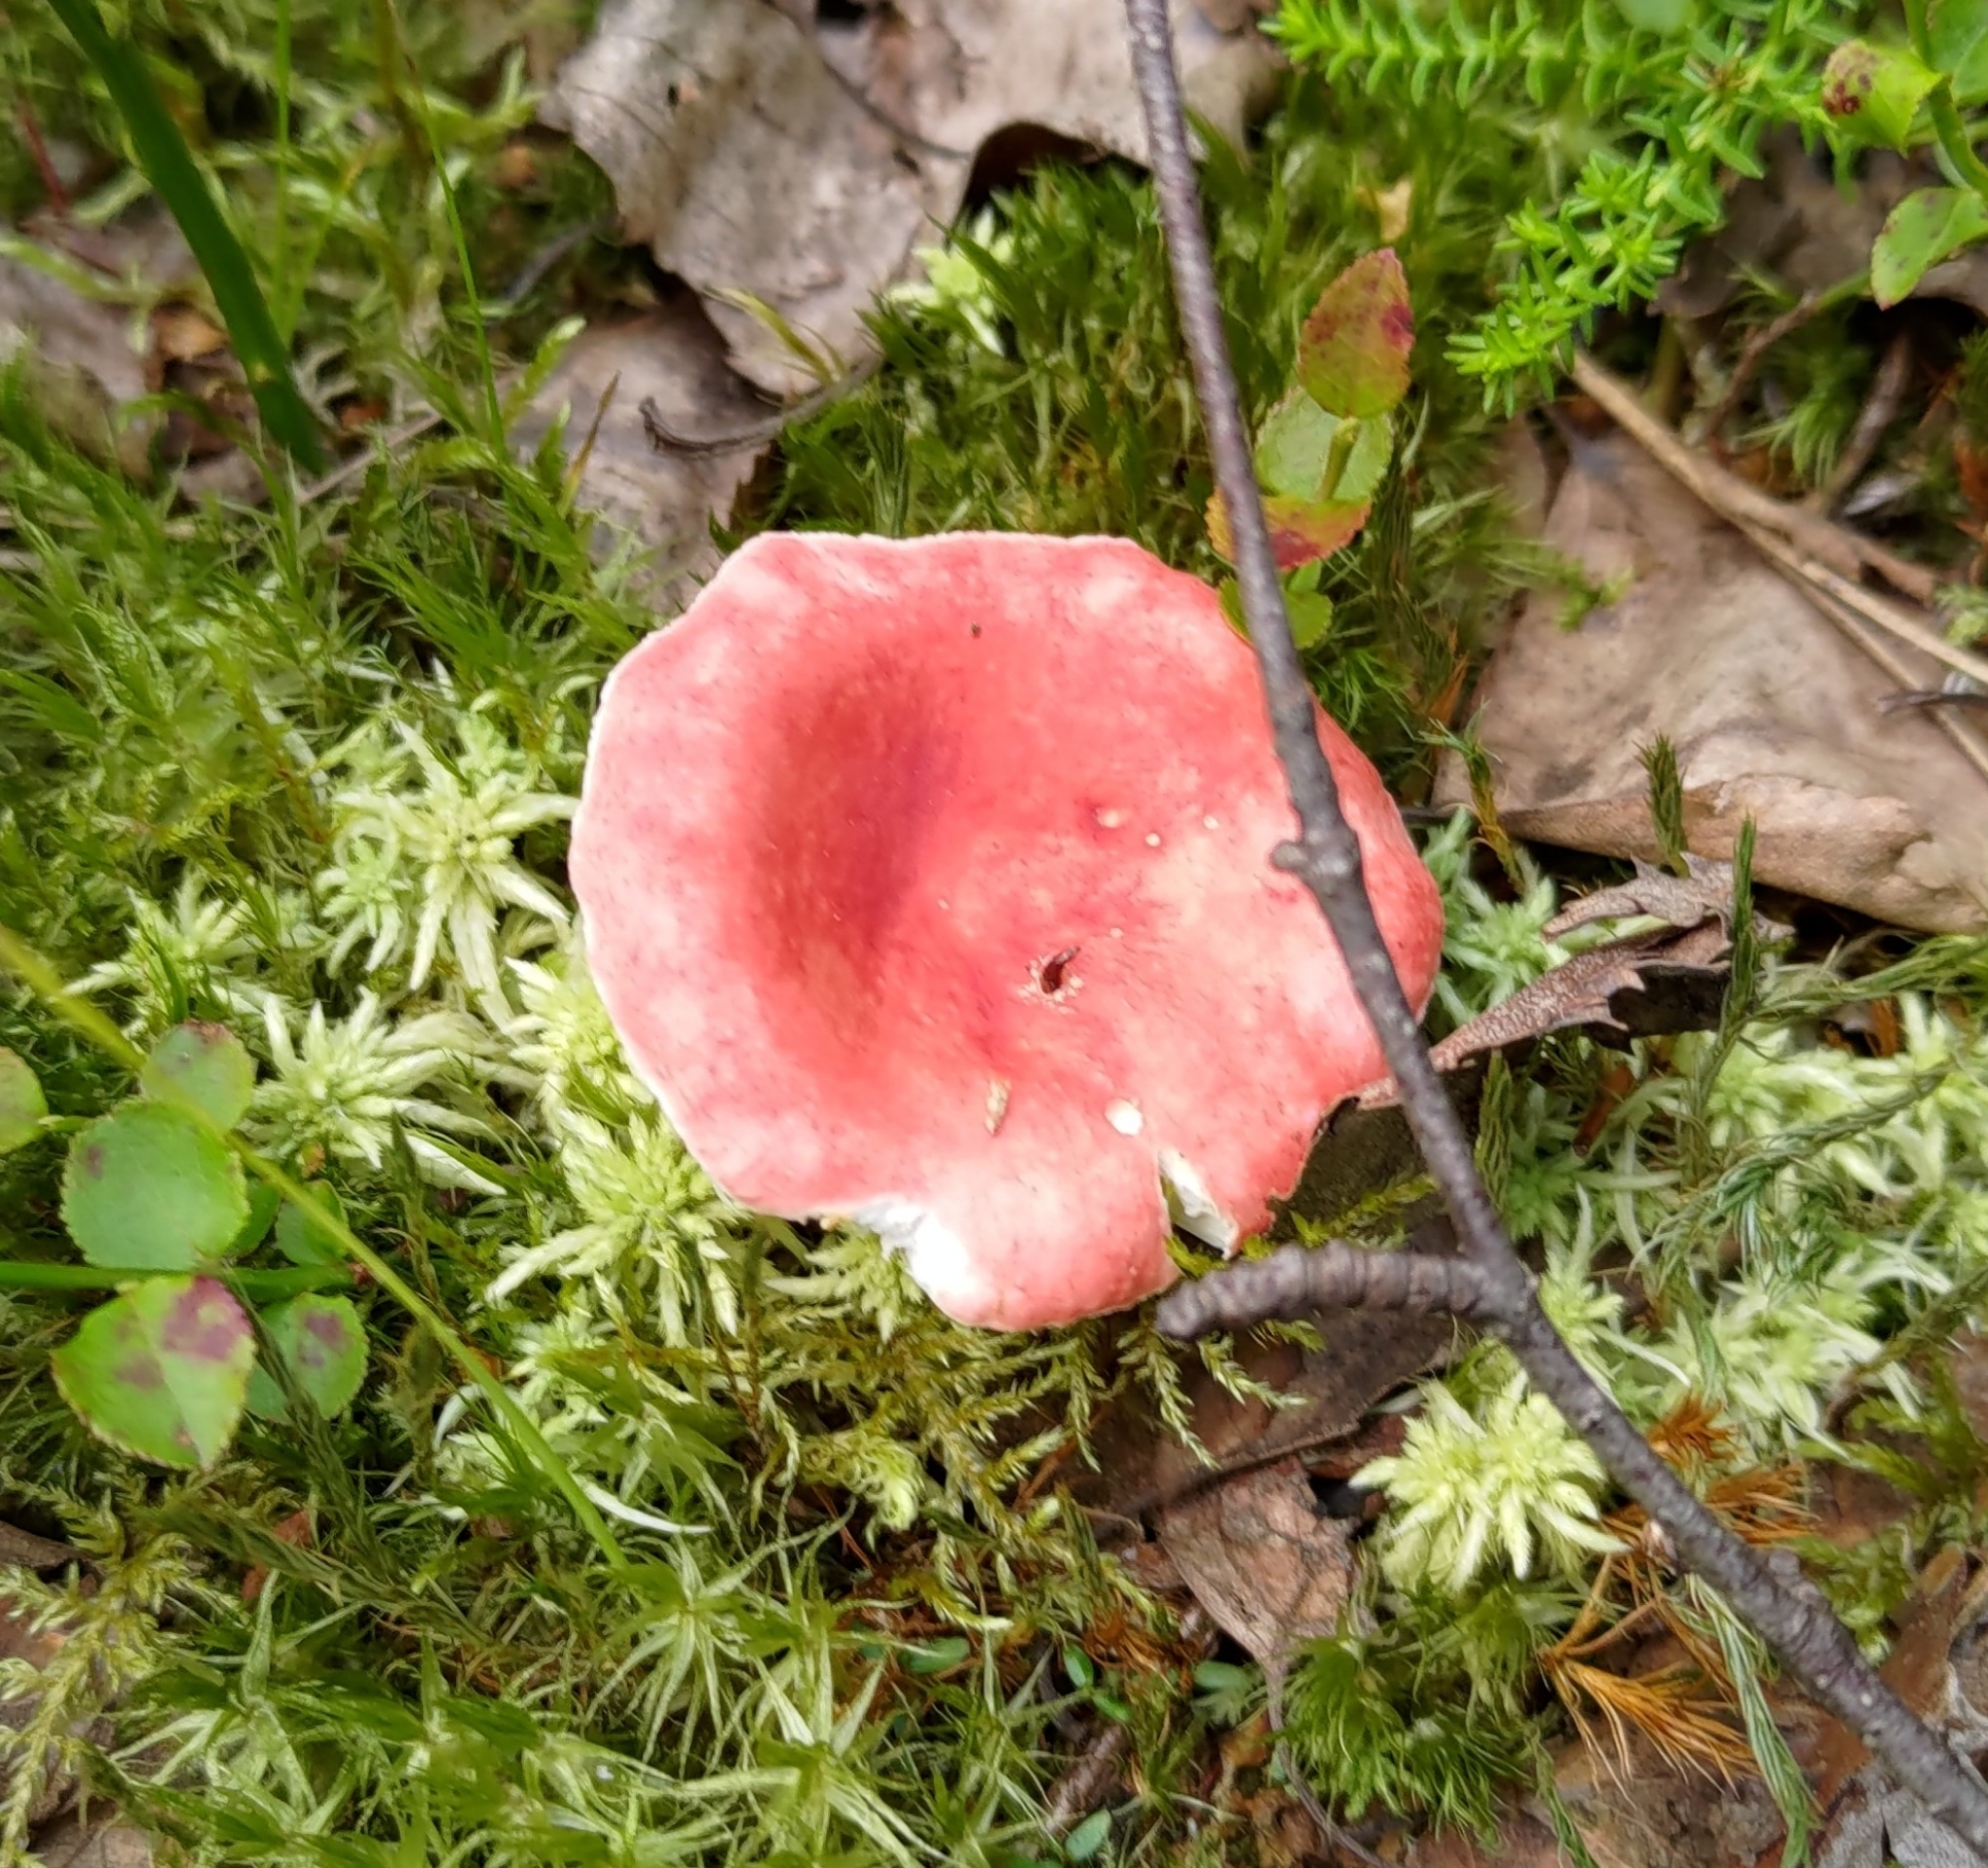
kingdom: Fungi
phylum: Basidiomycota
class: Agaricomycetes
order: Russulales
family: Russulaceae
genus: Russula
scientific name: Russula sanguinea
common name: Bloody brittlegill
